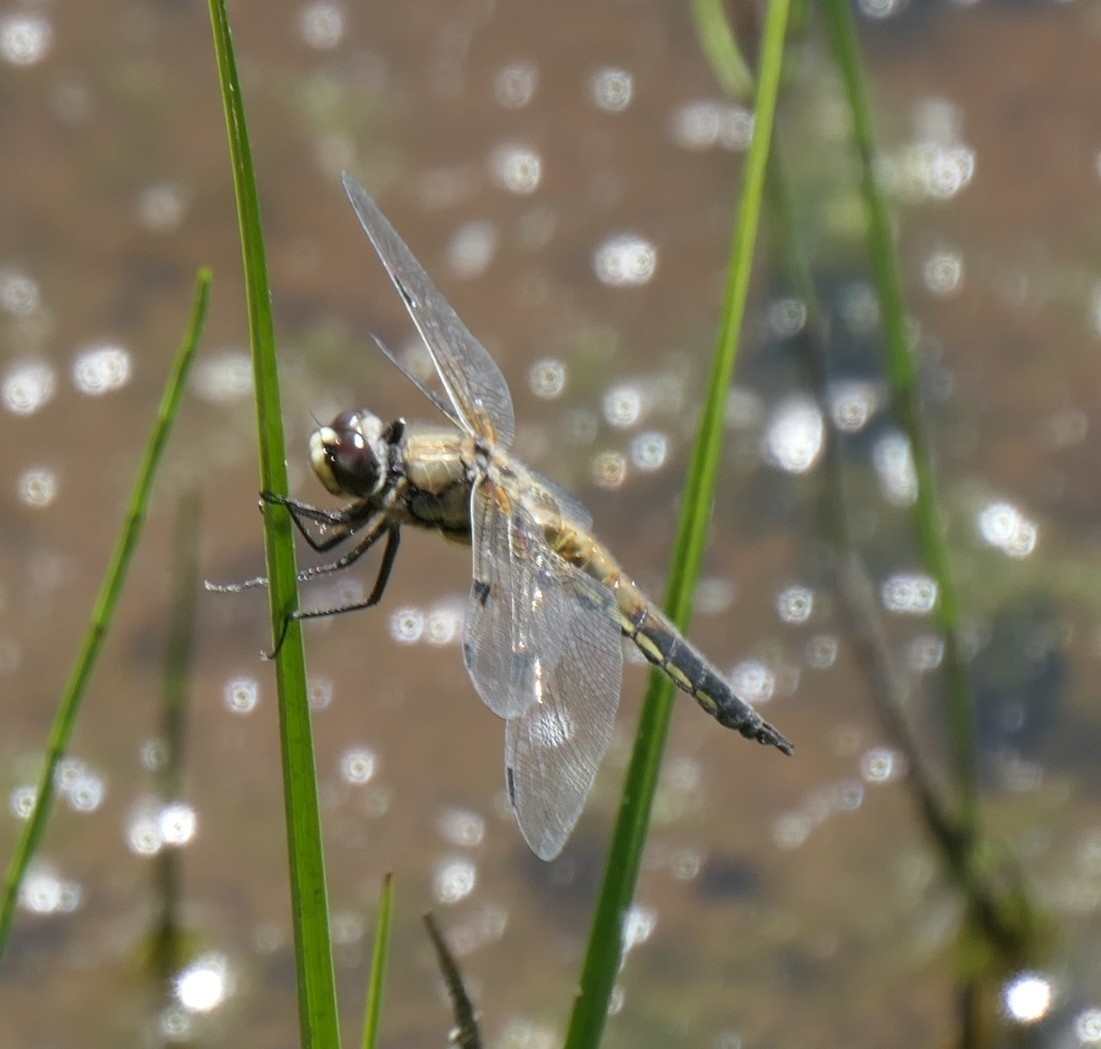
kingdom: Animalia
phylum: Arthropoda
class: Insecta
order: Odonata
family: Libellulidae
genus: Libellula
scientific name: Libellula quadrimaculata
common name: Four-spotted chaser
